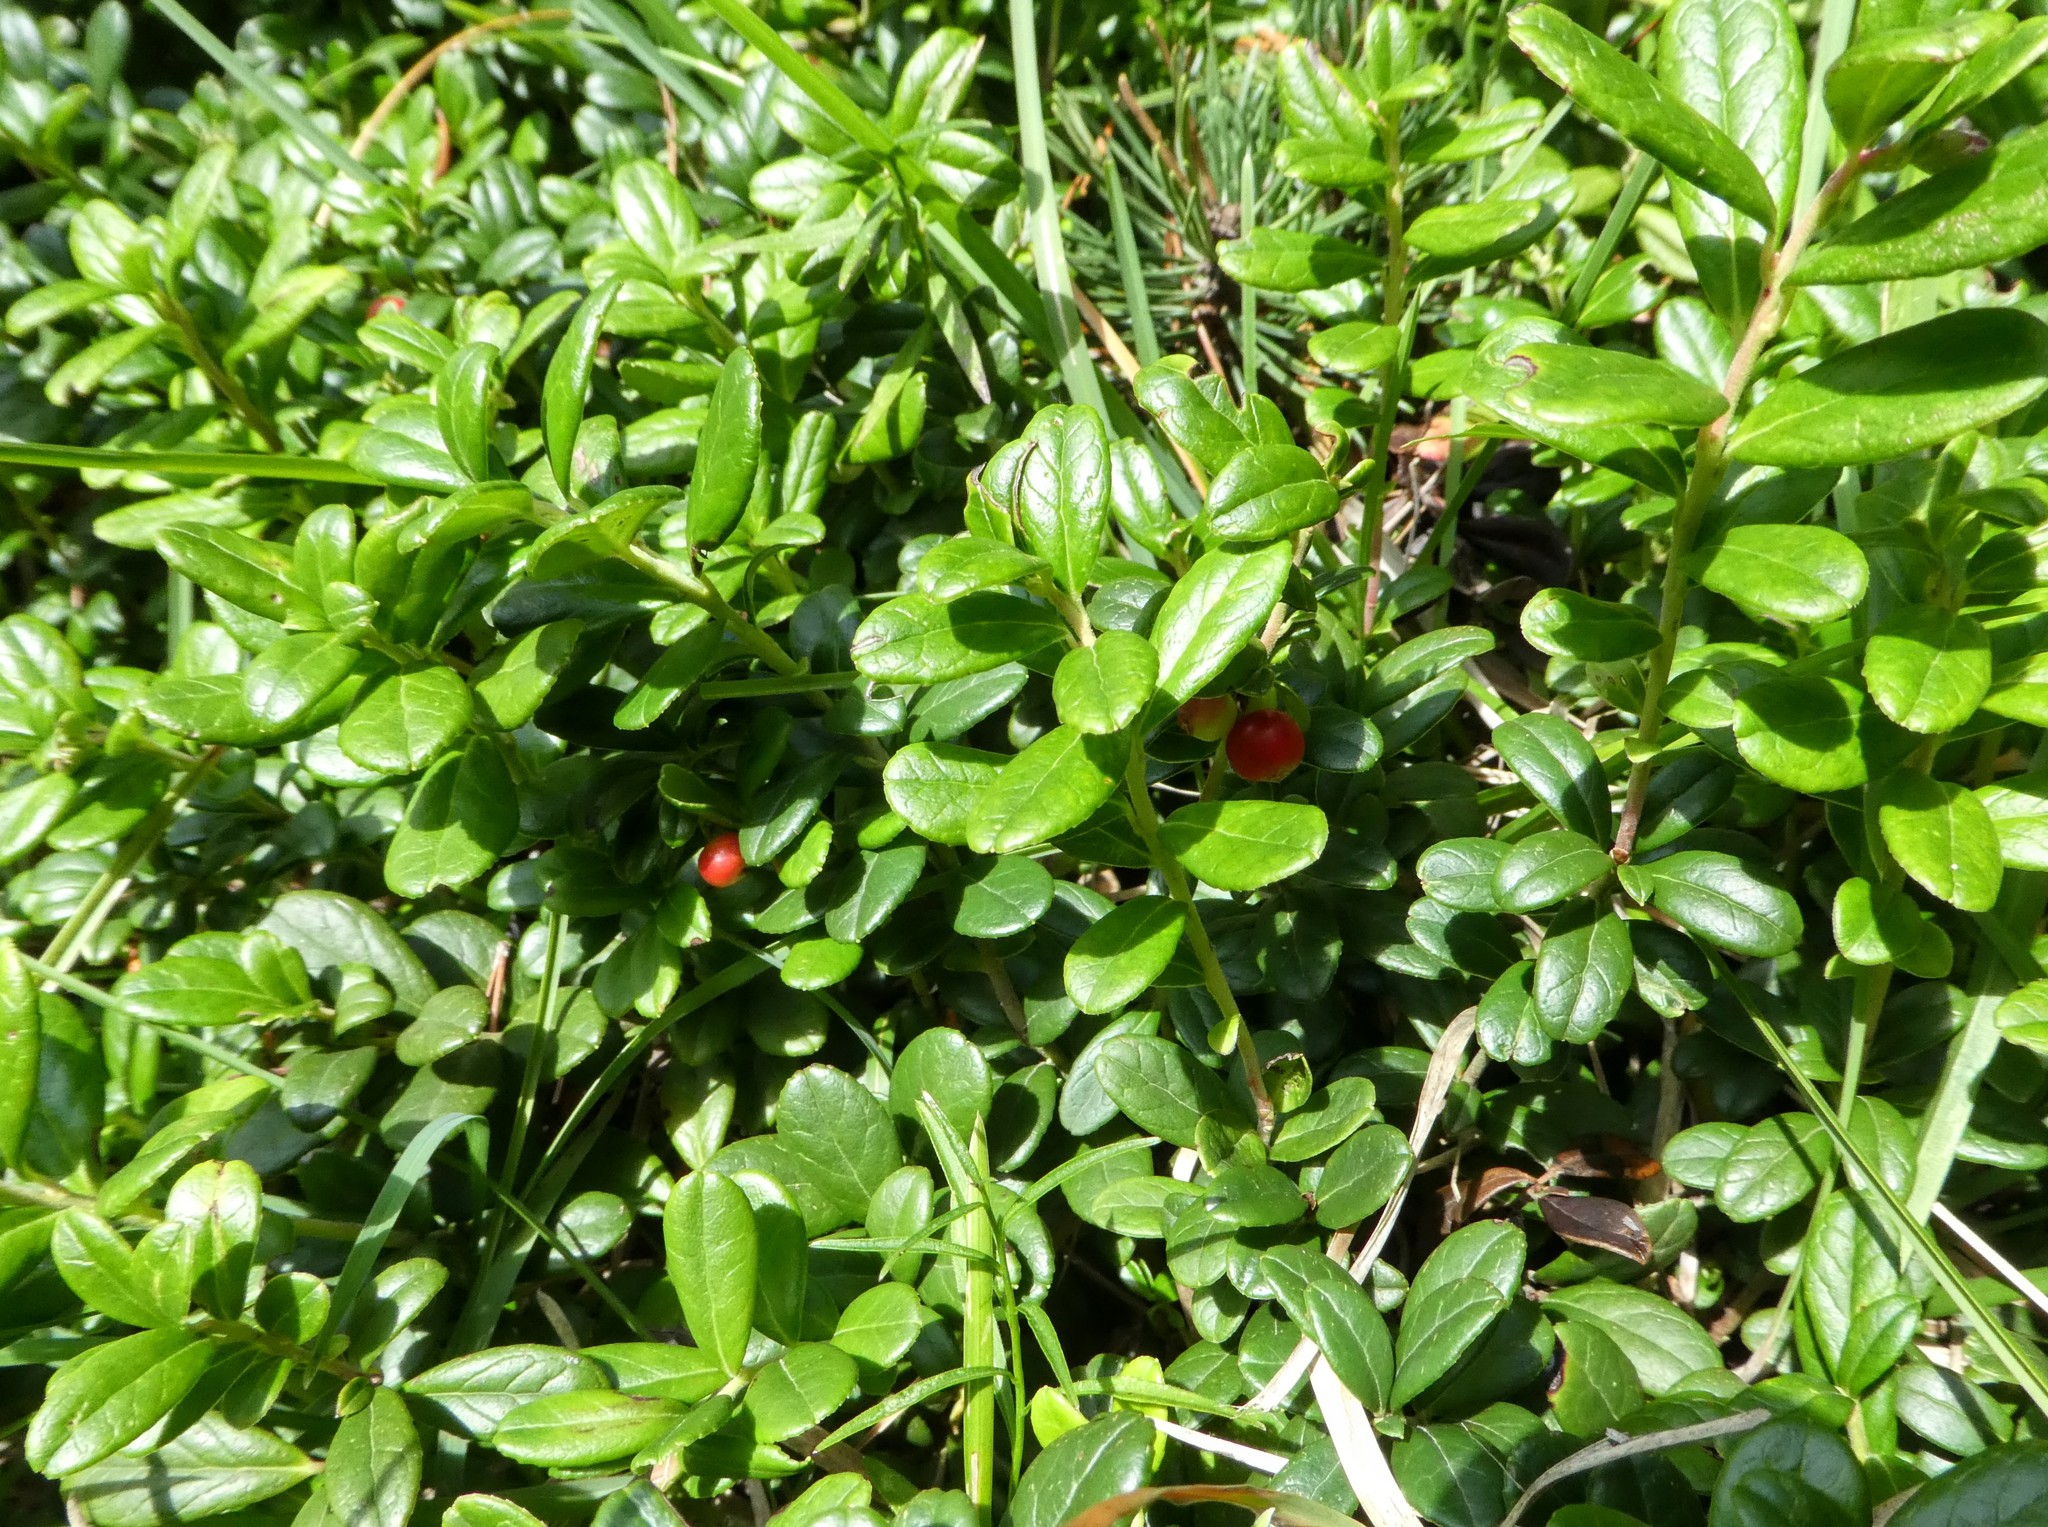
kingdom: Plantae
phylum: Tracheophyta
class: Magnoliopsida
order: Ericales
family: Ericaceae
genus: Vaccinium
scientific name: Vaccinium vitis-idaea
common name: Cowberry
